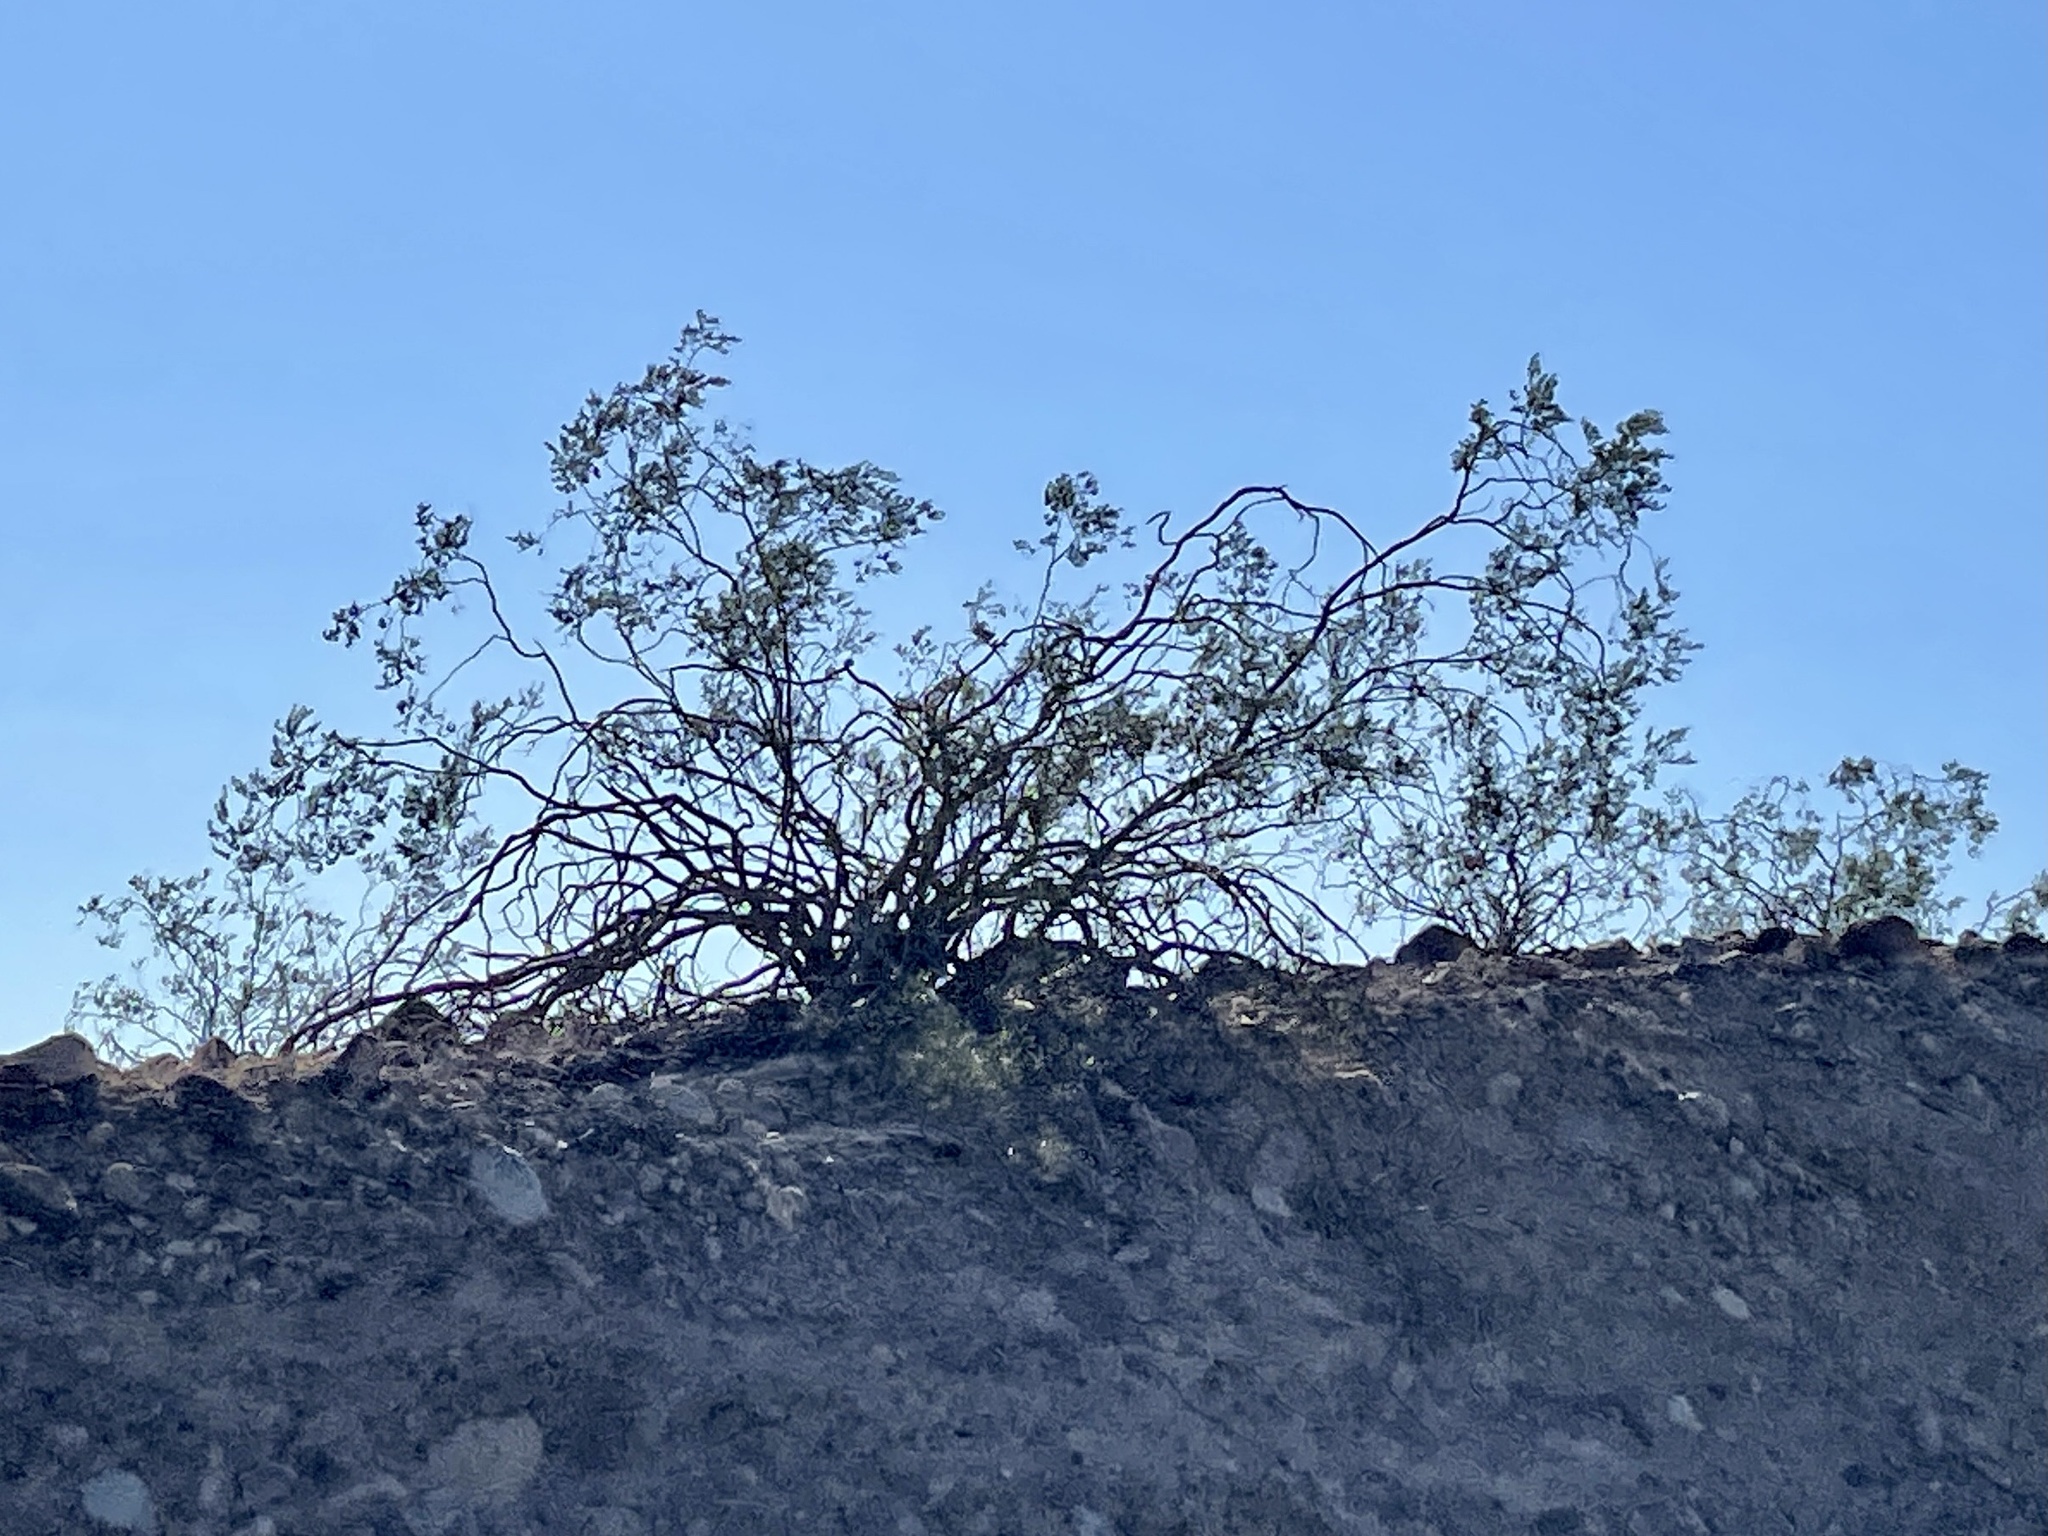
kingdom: Plantae
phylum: Tracheophyta
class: Magnoliopsida
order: Zygophyllales
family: Zygophyllaceae
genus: Larrea
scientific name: Larrea tridentata
